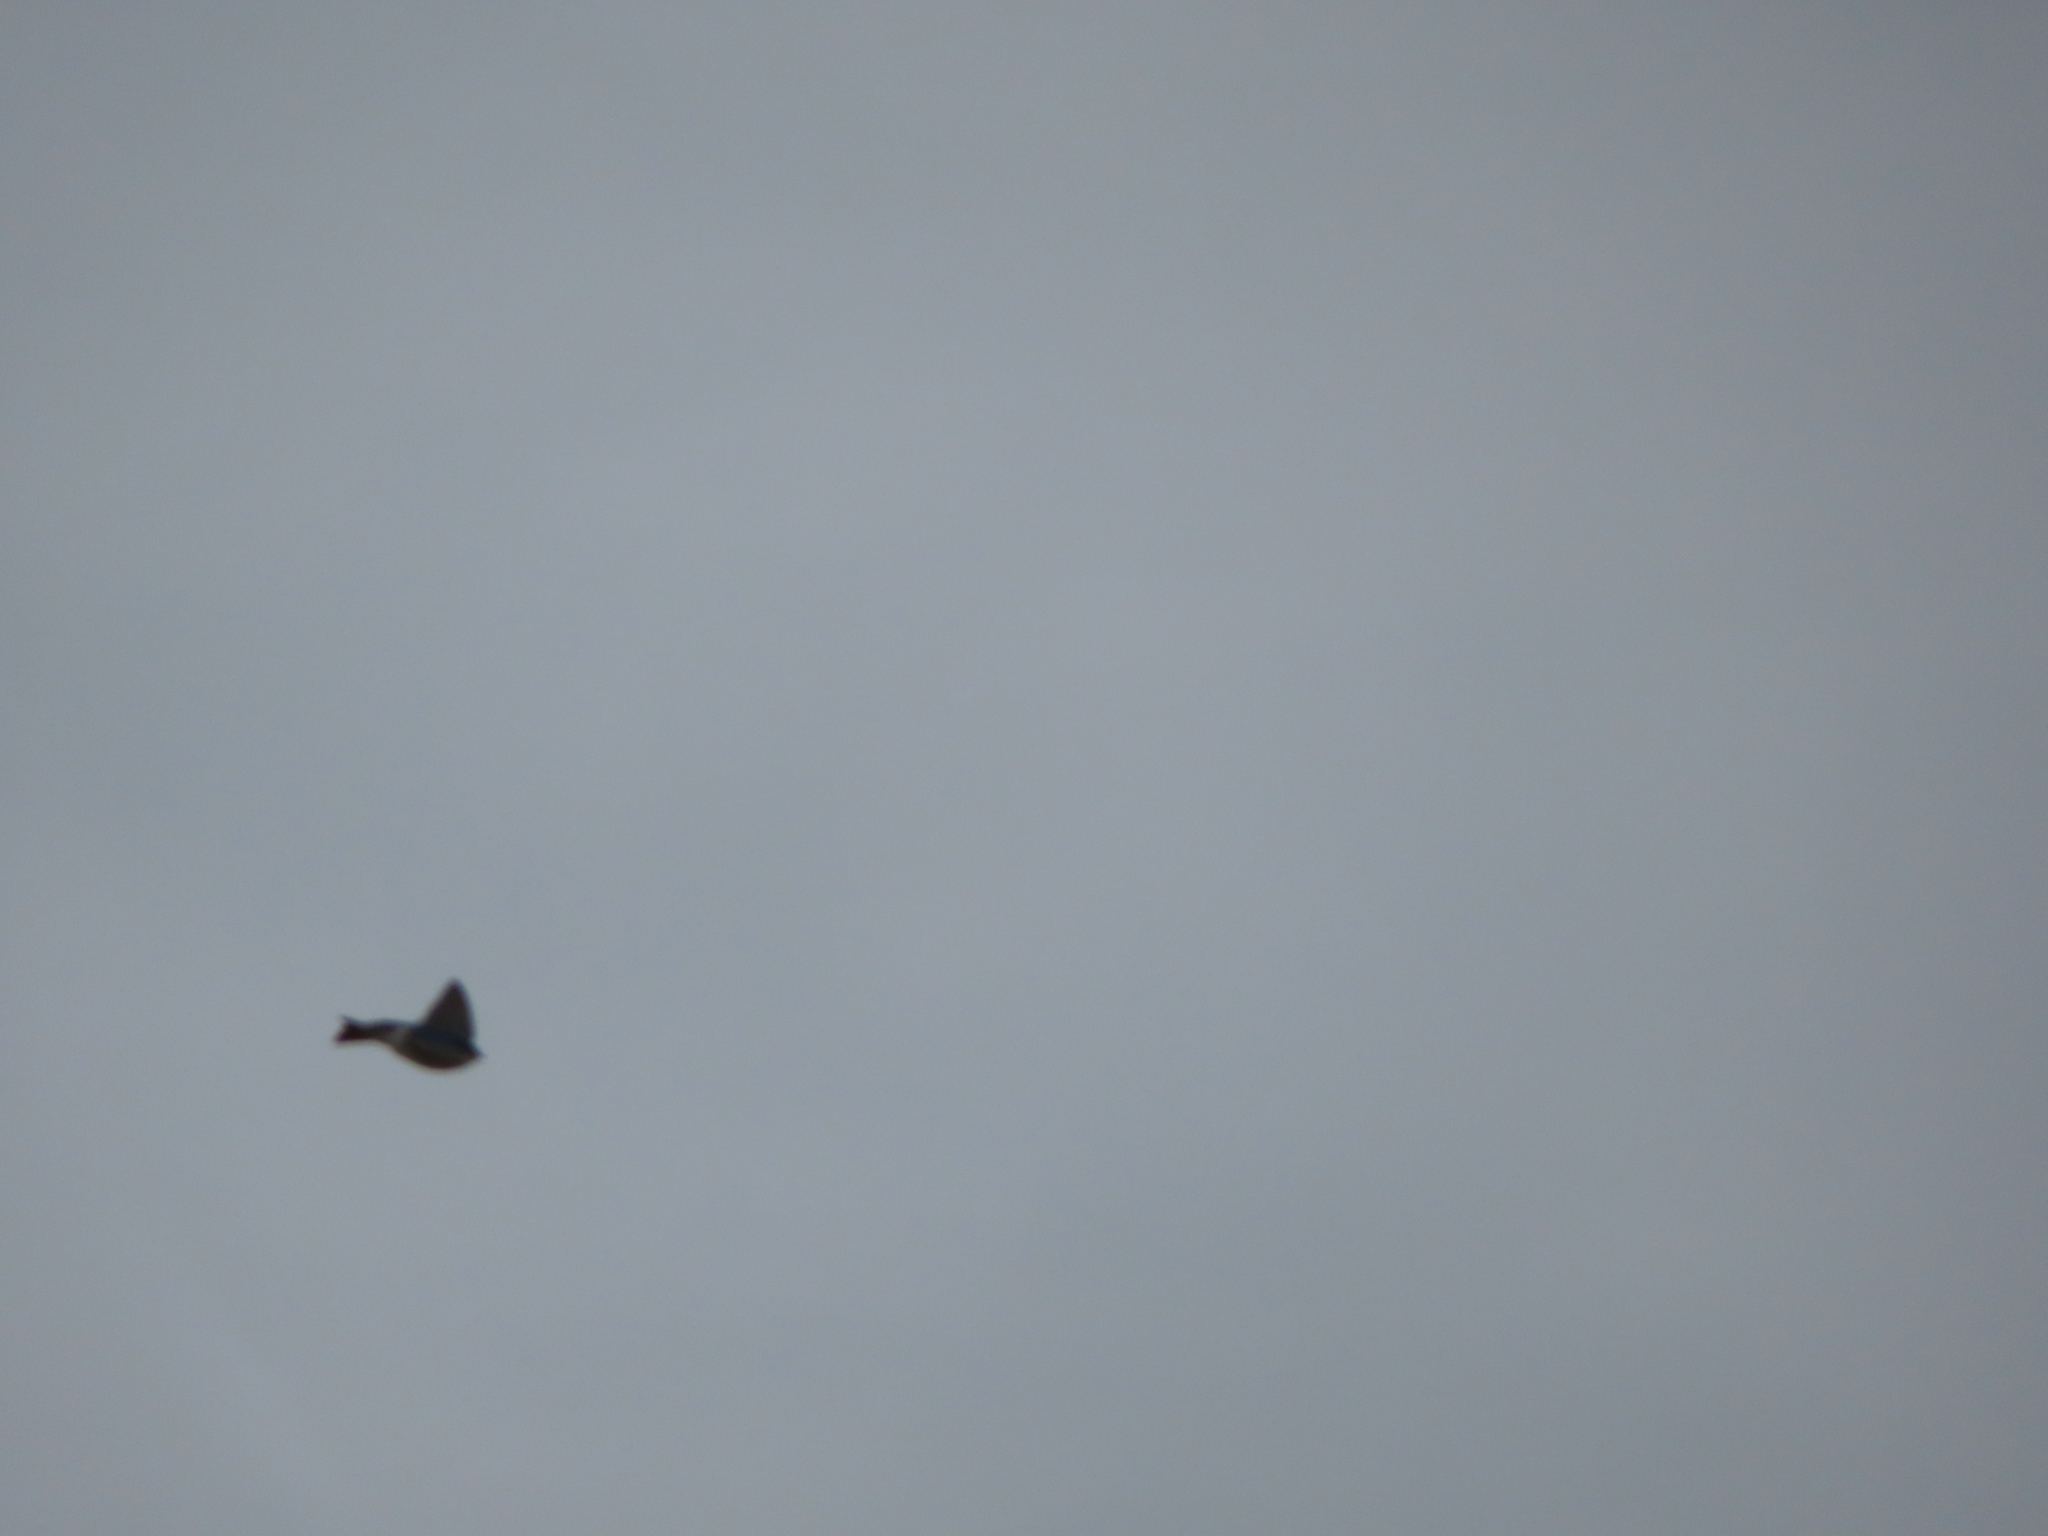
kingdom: Animalia
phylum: Chordata
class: Aves
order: Passeriformes
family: Hirundinidae
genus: Tachycineta
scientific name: Tachycineta bicolor
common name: Tree swallow
